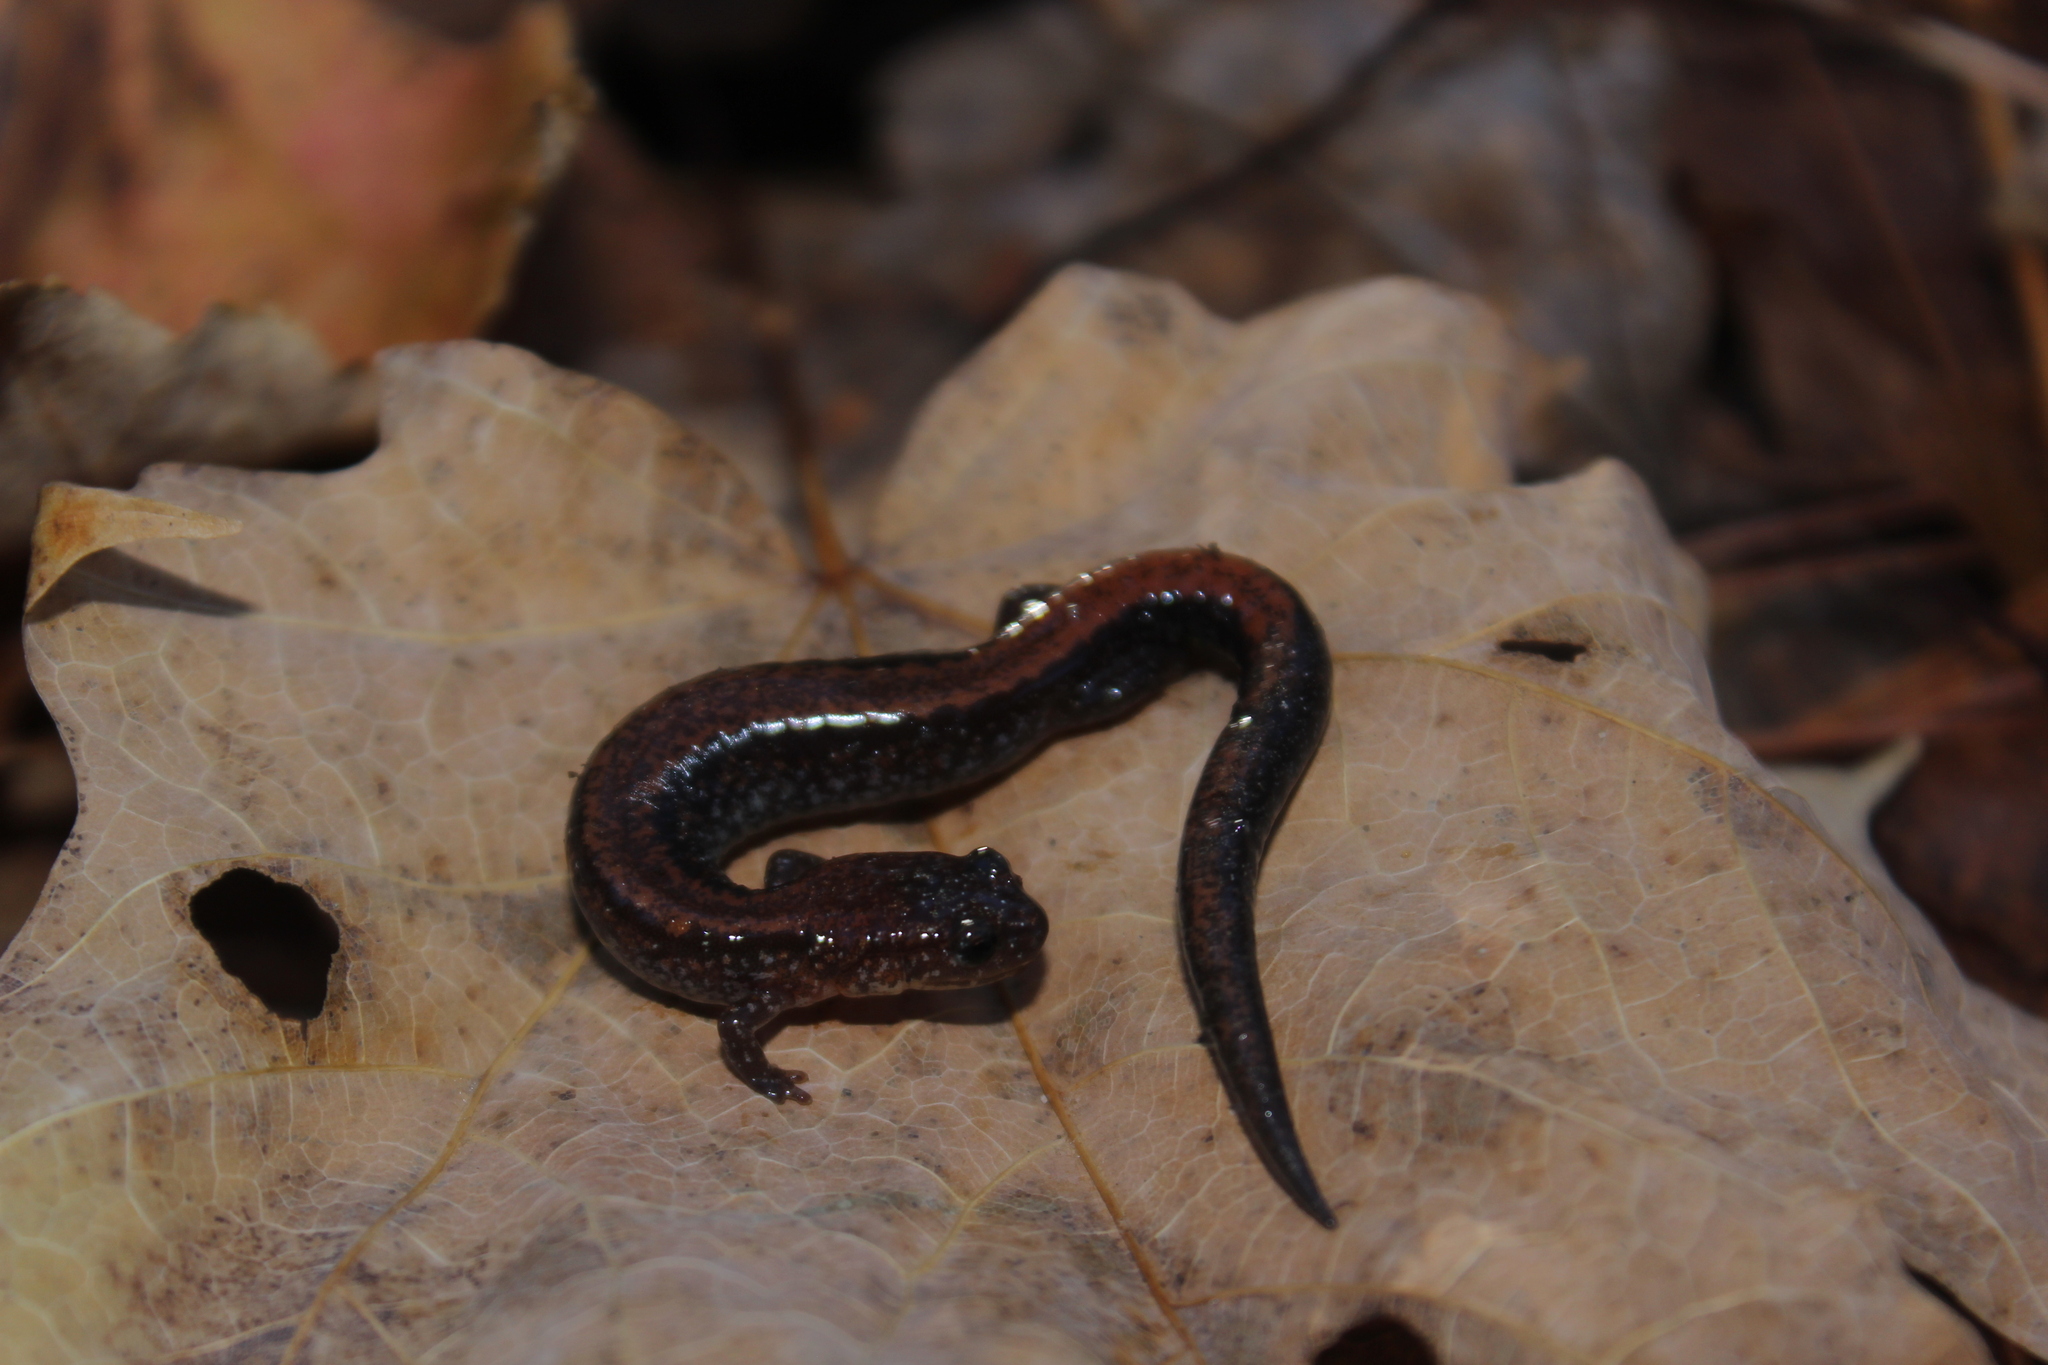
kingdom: Animalia
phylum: Chordata
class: Amphibia
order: Caudata
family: Plethodontidae
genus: Plethodon
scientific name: Plethodon cinereus
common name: Redback salamander
